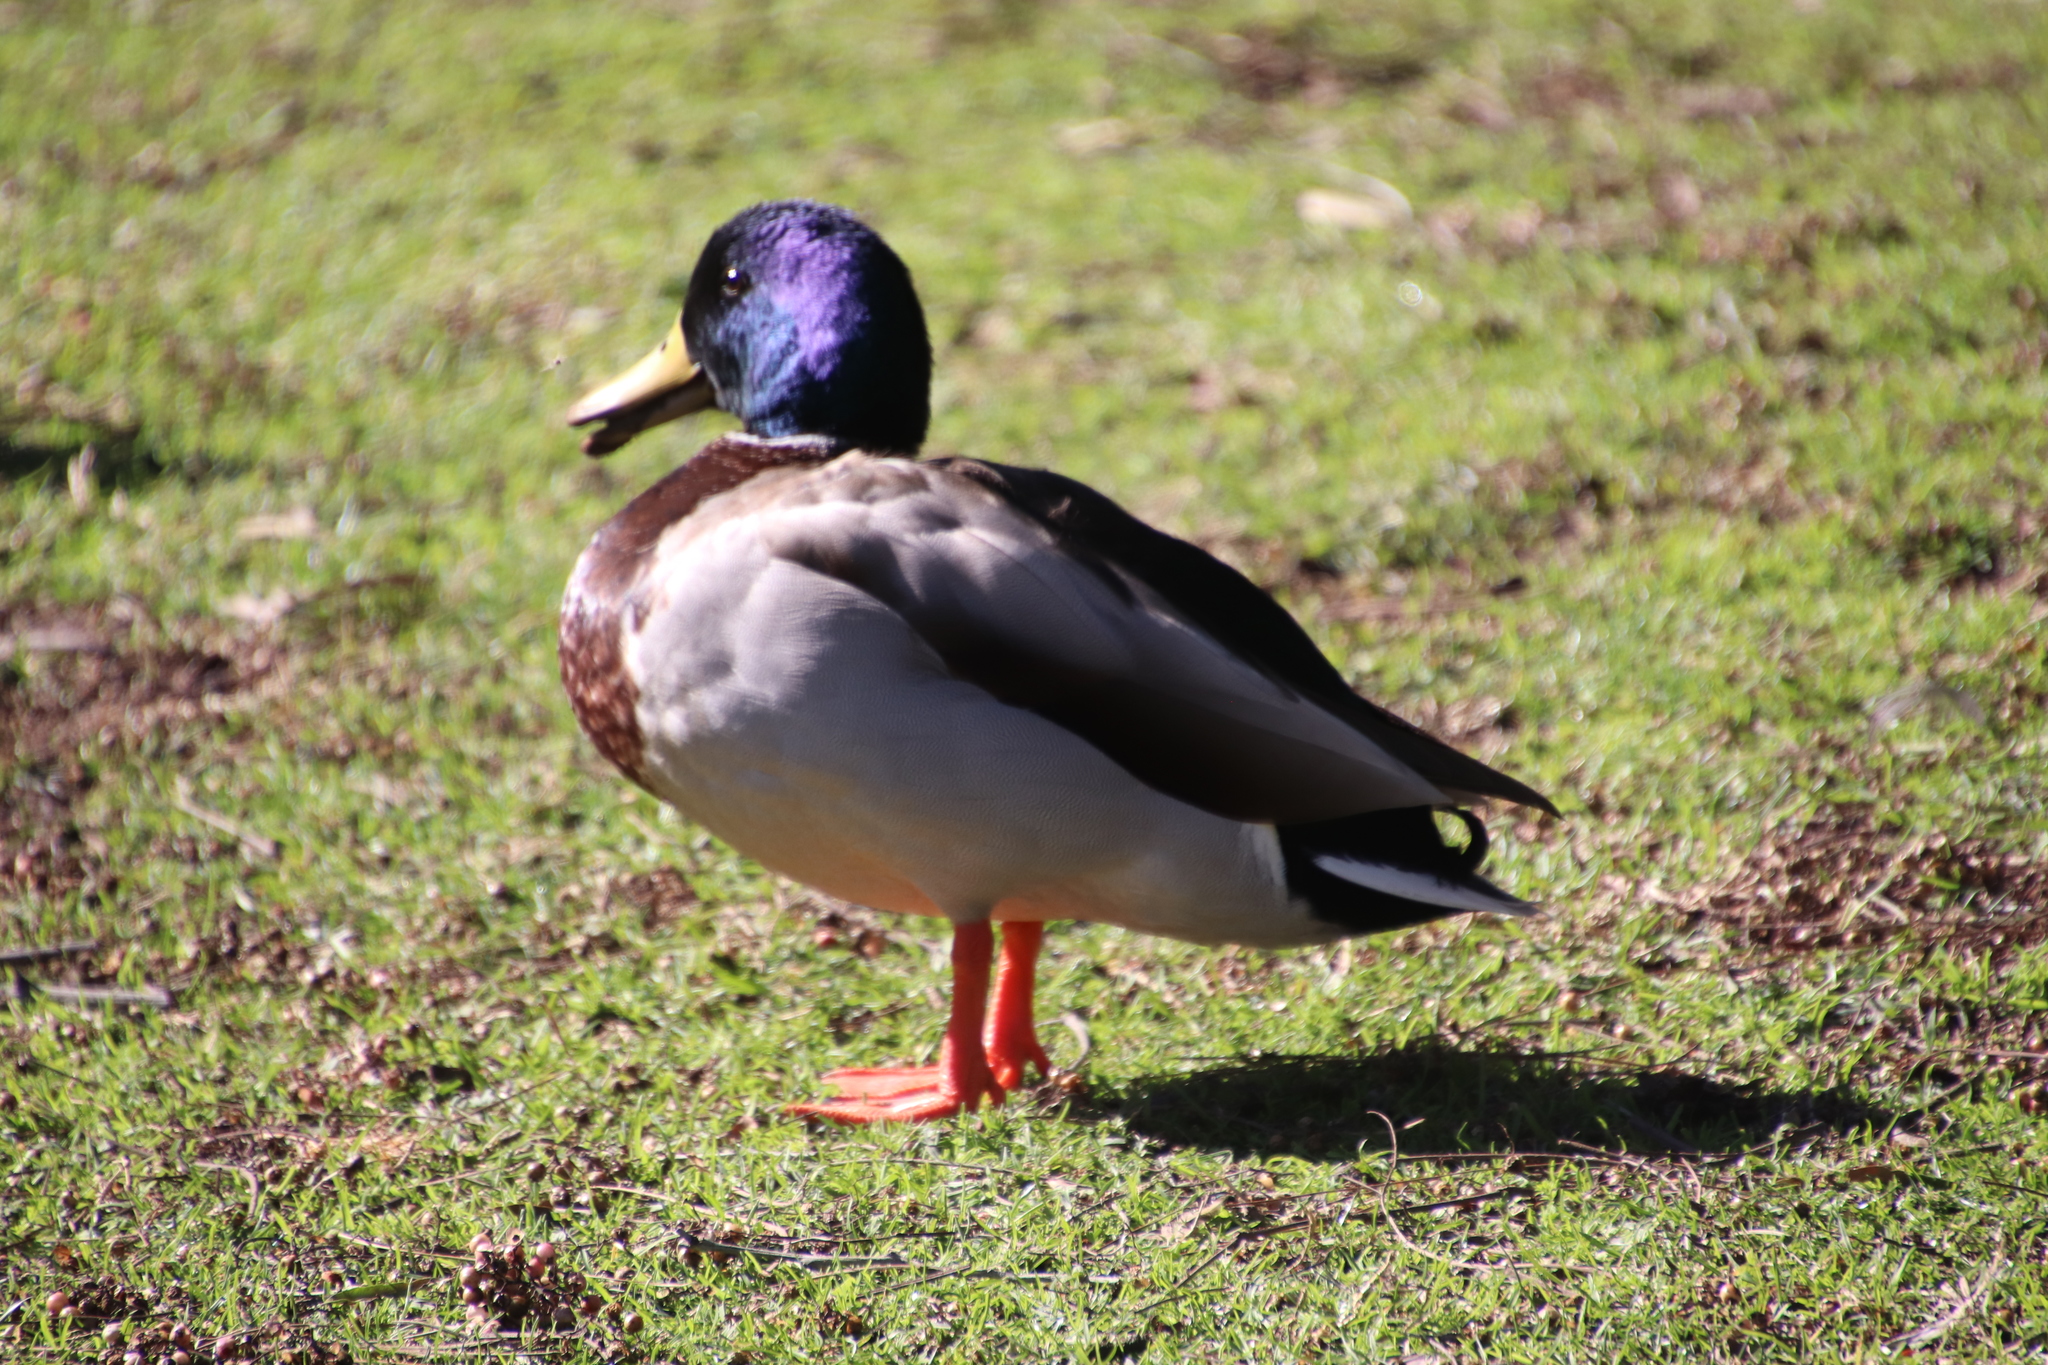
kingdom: Animalia
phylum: Chordata
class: Aves
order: Anseriformes
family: Anatidae
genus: Anas
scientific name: Anas platyrhynchos
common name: Mallard
